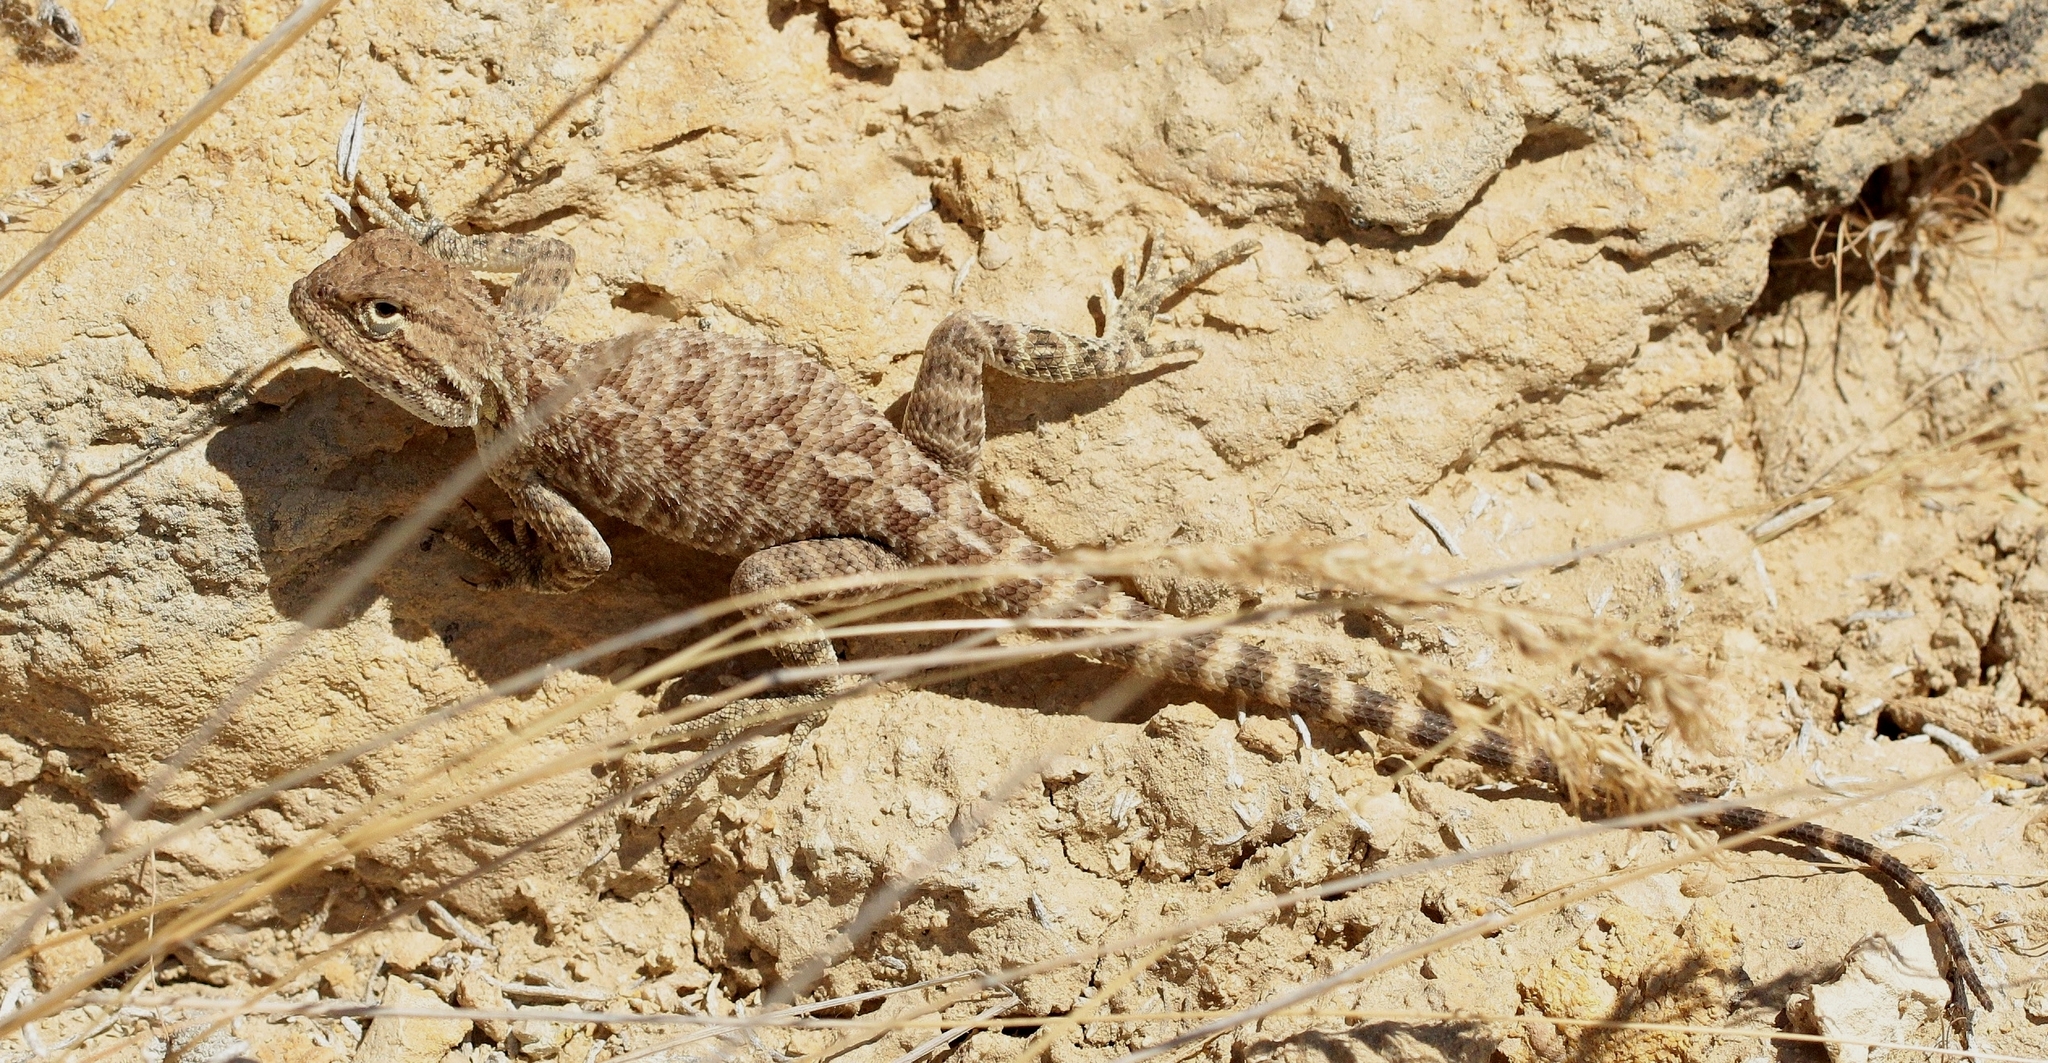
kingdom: Animalia
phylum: Chordata
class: Squamata
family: Agamidae
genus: Trapelus
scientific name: Trapelus sanguinolentus
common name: Steppe agama
